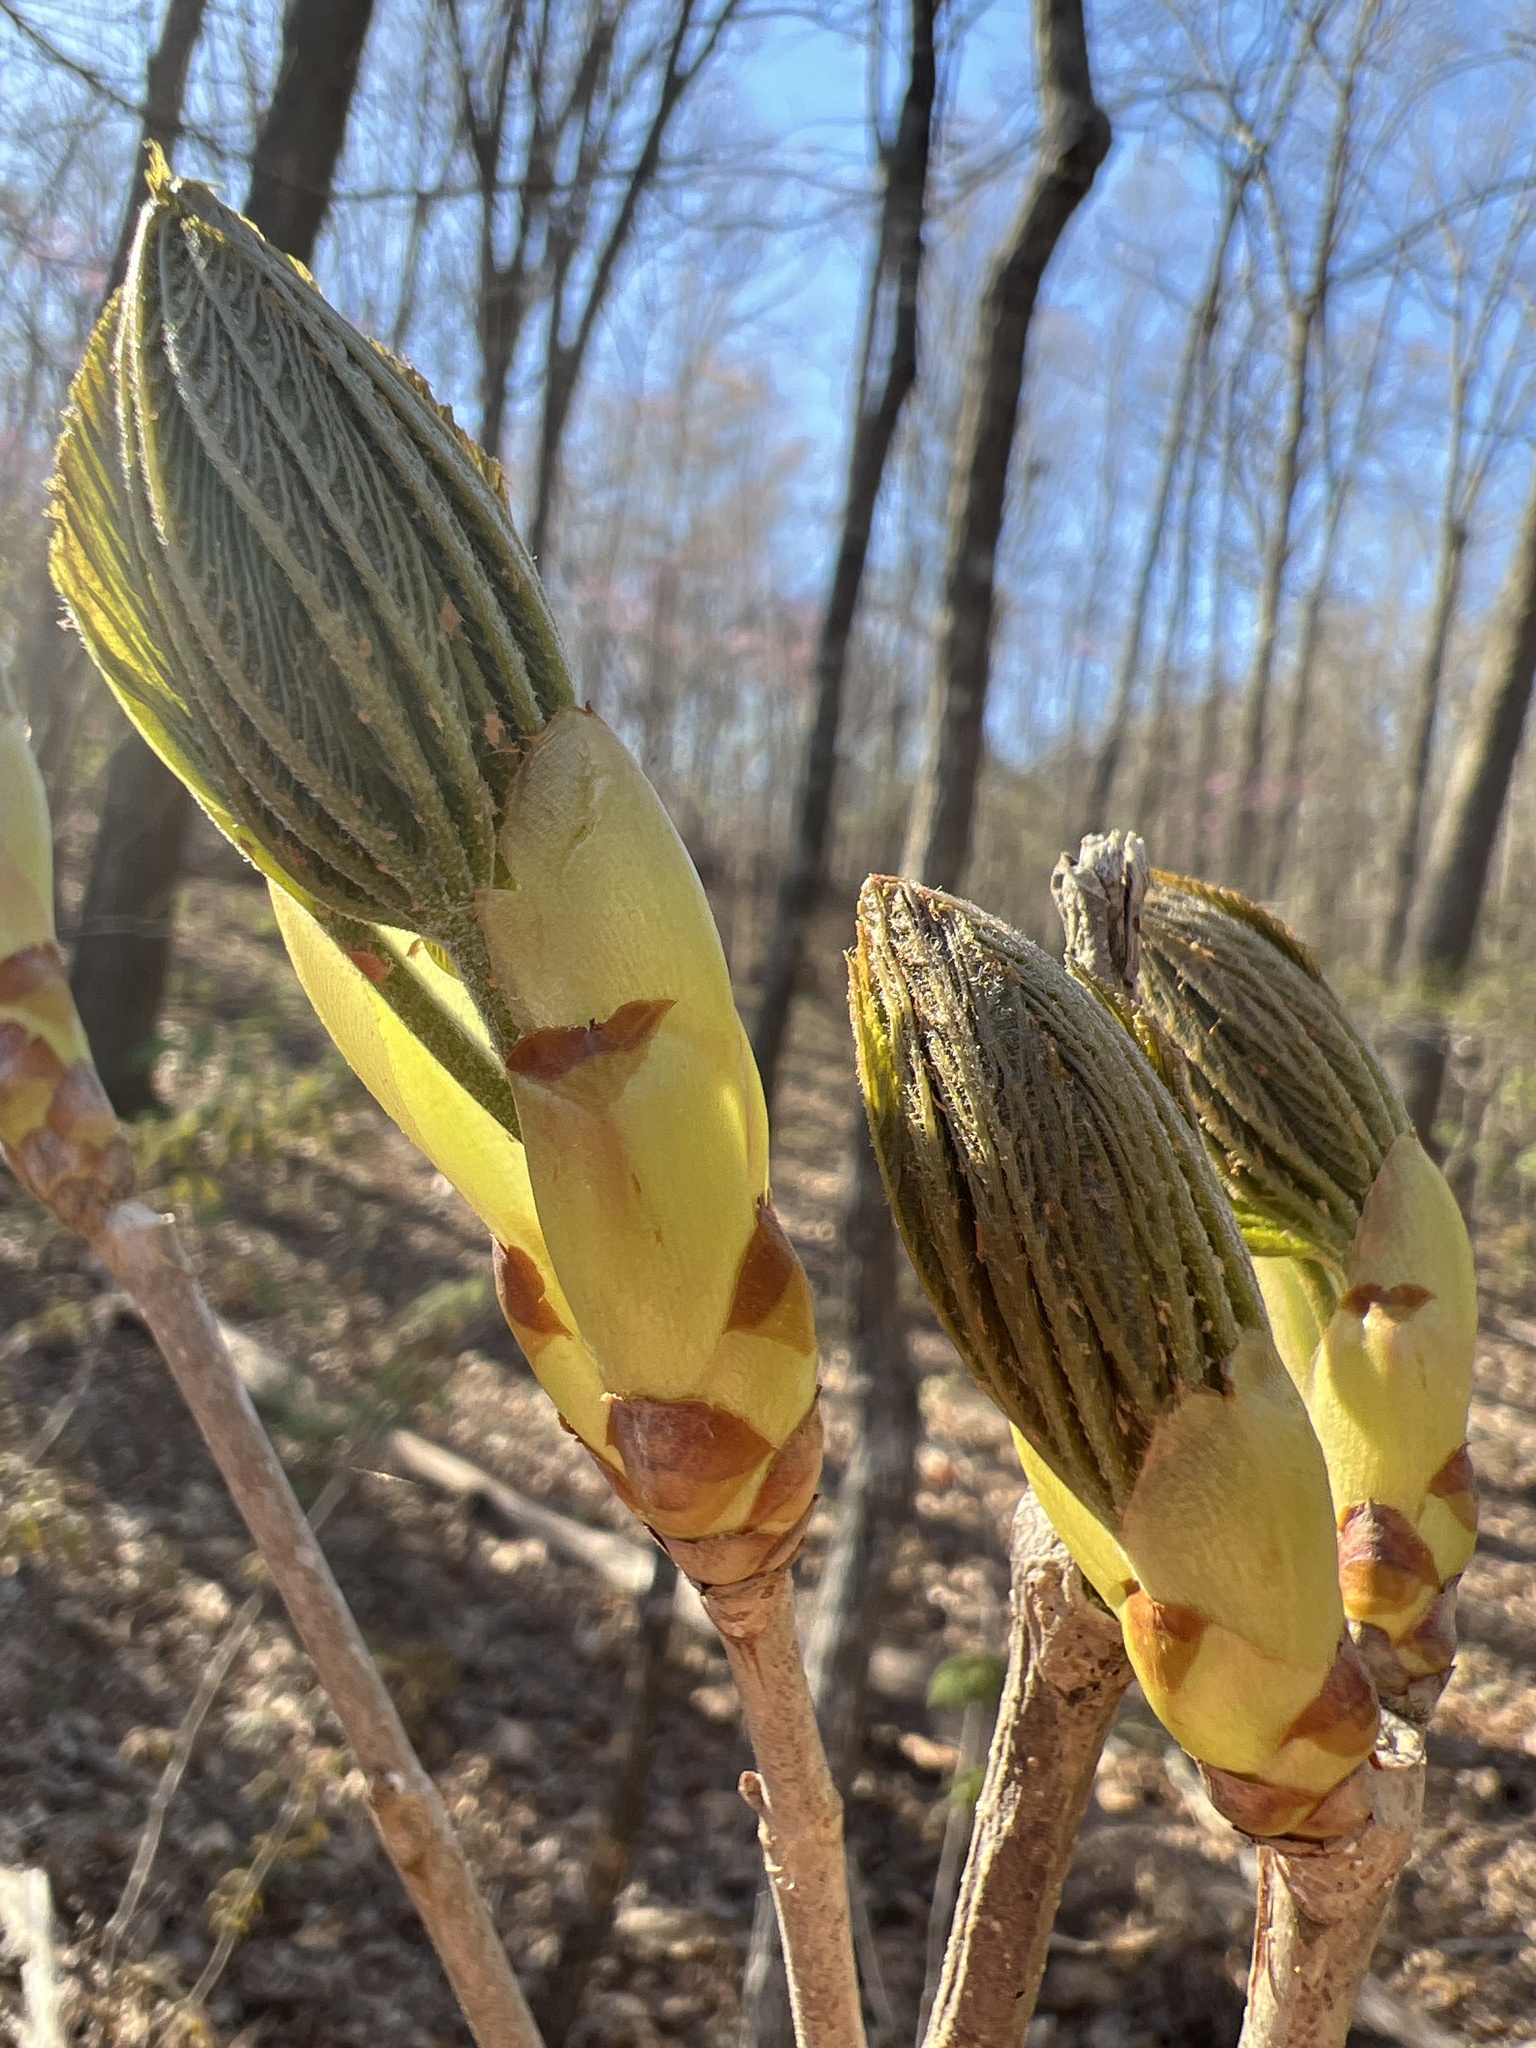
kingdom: Plantae
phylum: Tracheophyta
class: Magnoliopsida
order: Sapindales
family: Sapindaceae
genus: Aesculus
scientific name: Aesculus sylvatica
